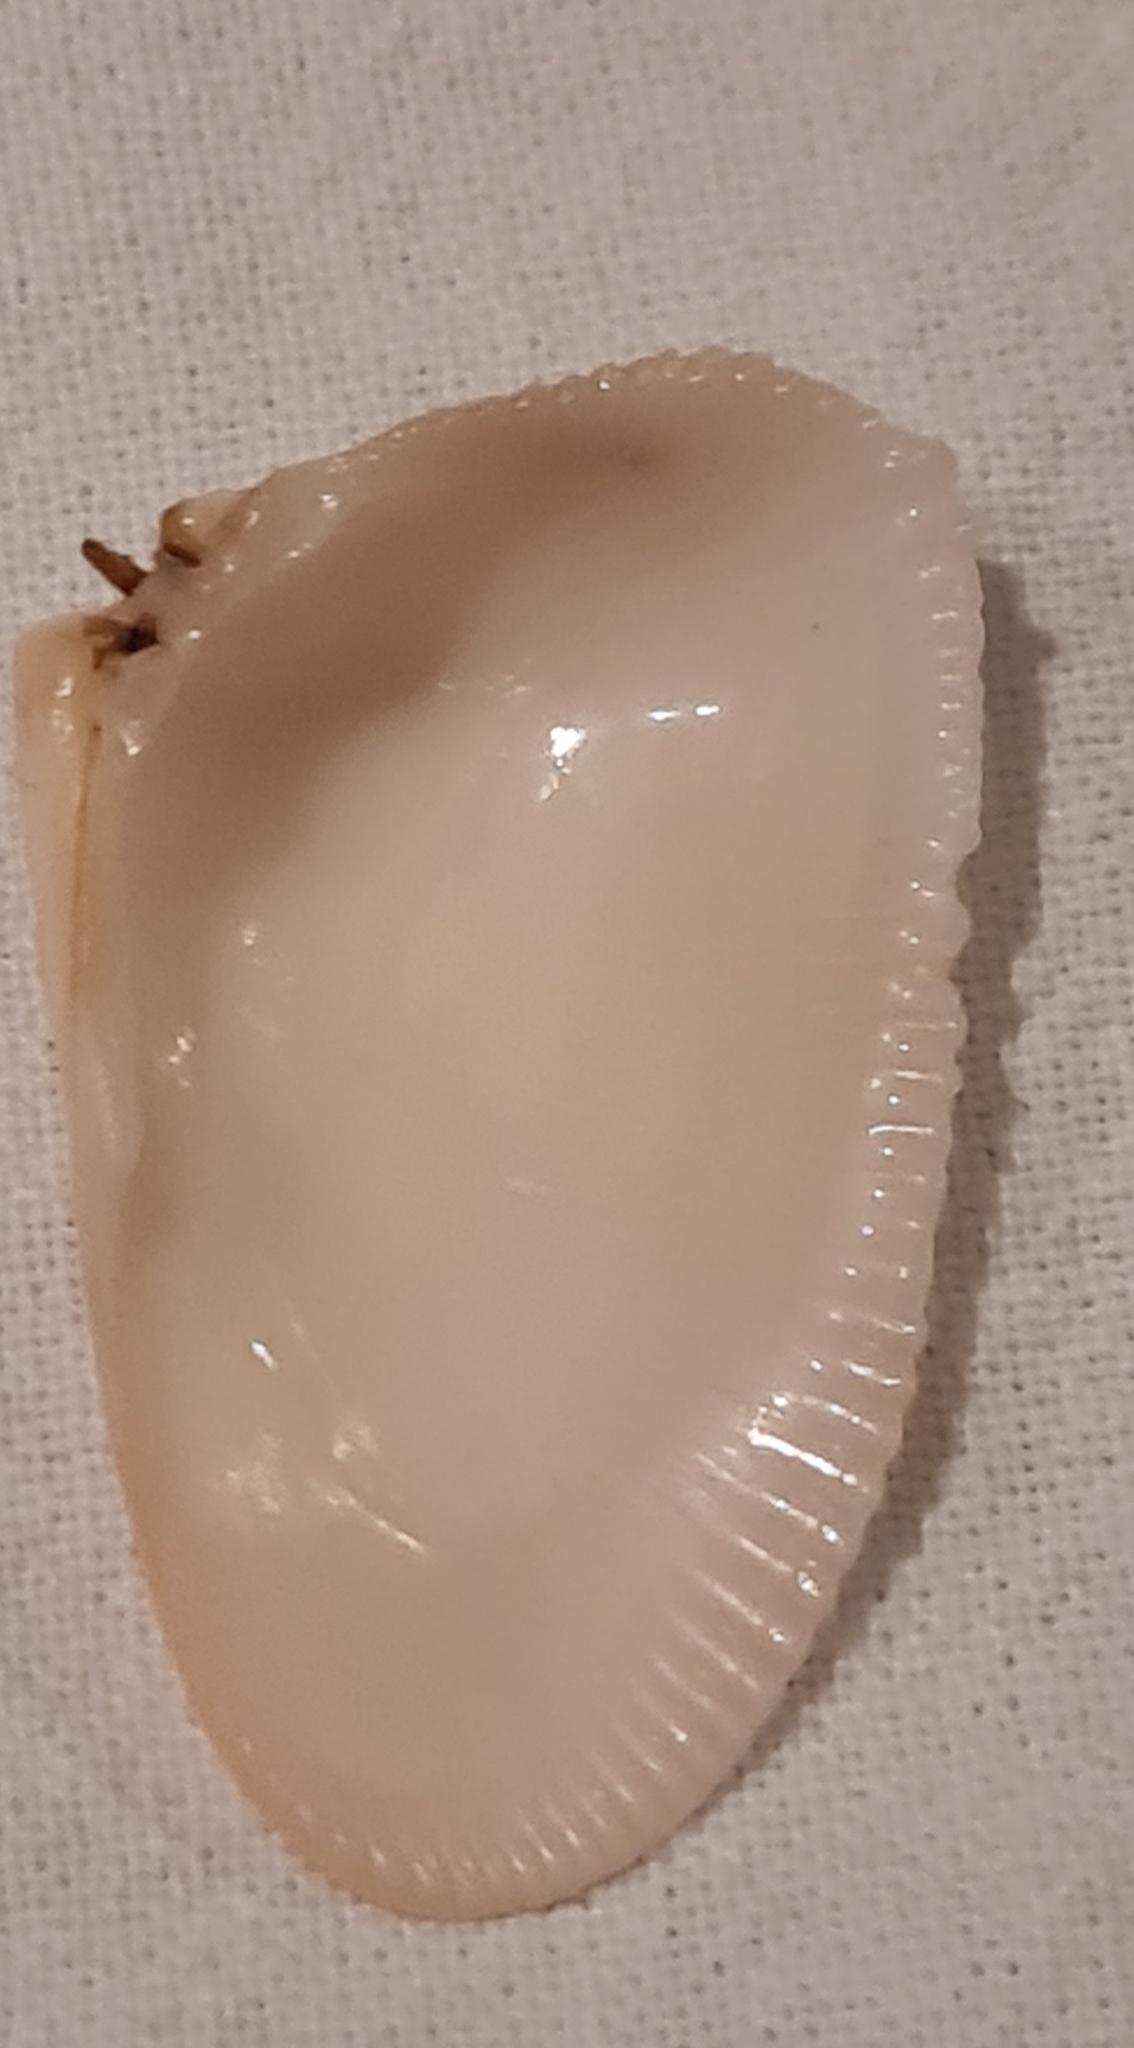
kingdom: Animalia
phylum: Mollusca
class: Bivalvia
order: Cardiida
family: Donacidae
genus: Donax
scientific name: Donax hanleyanus
